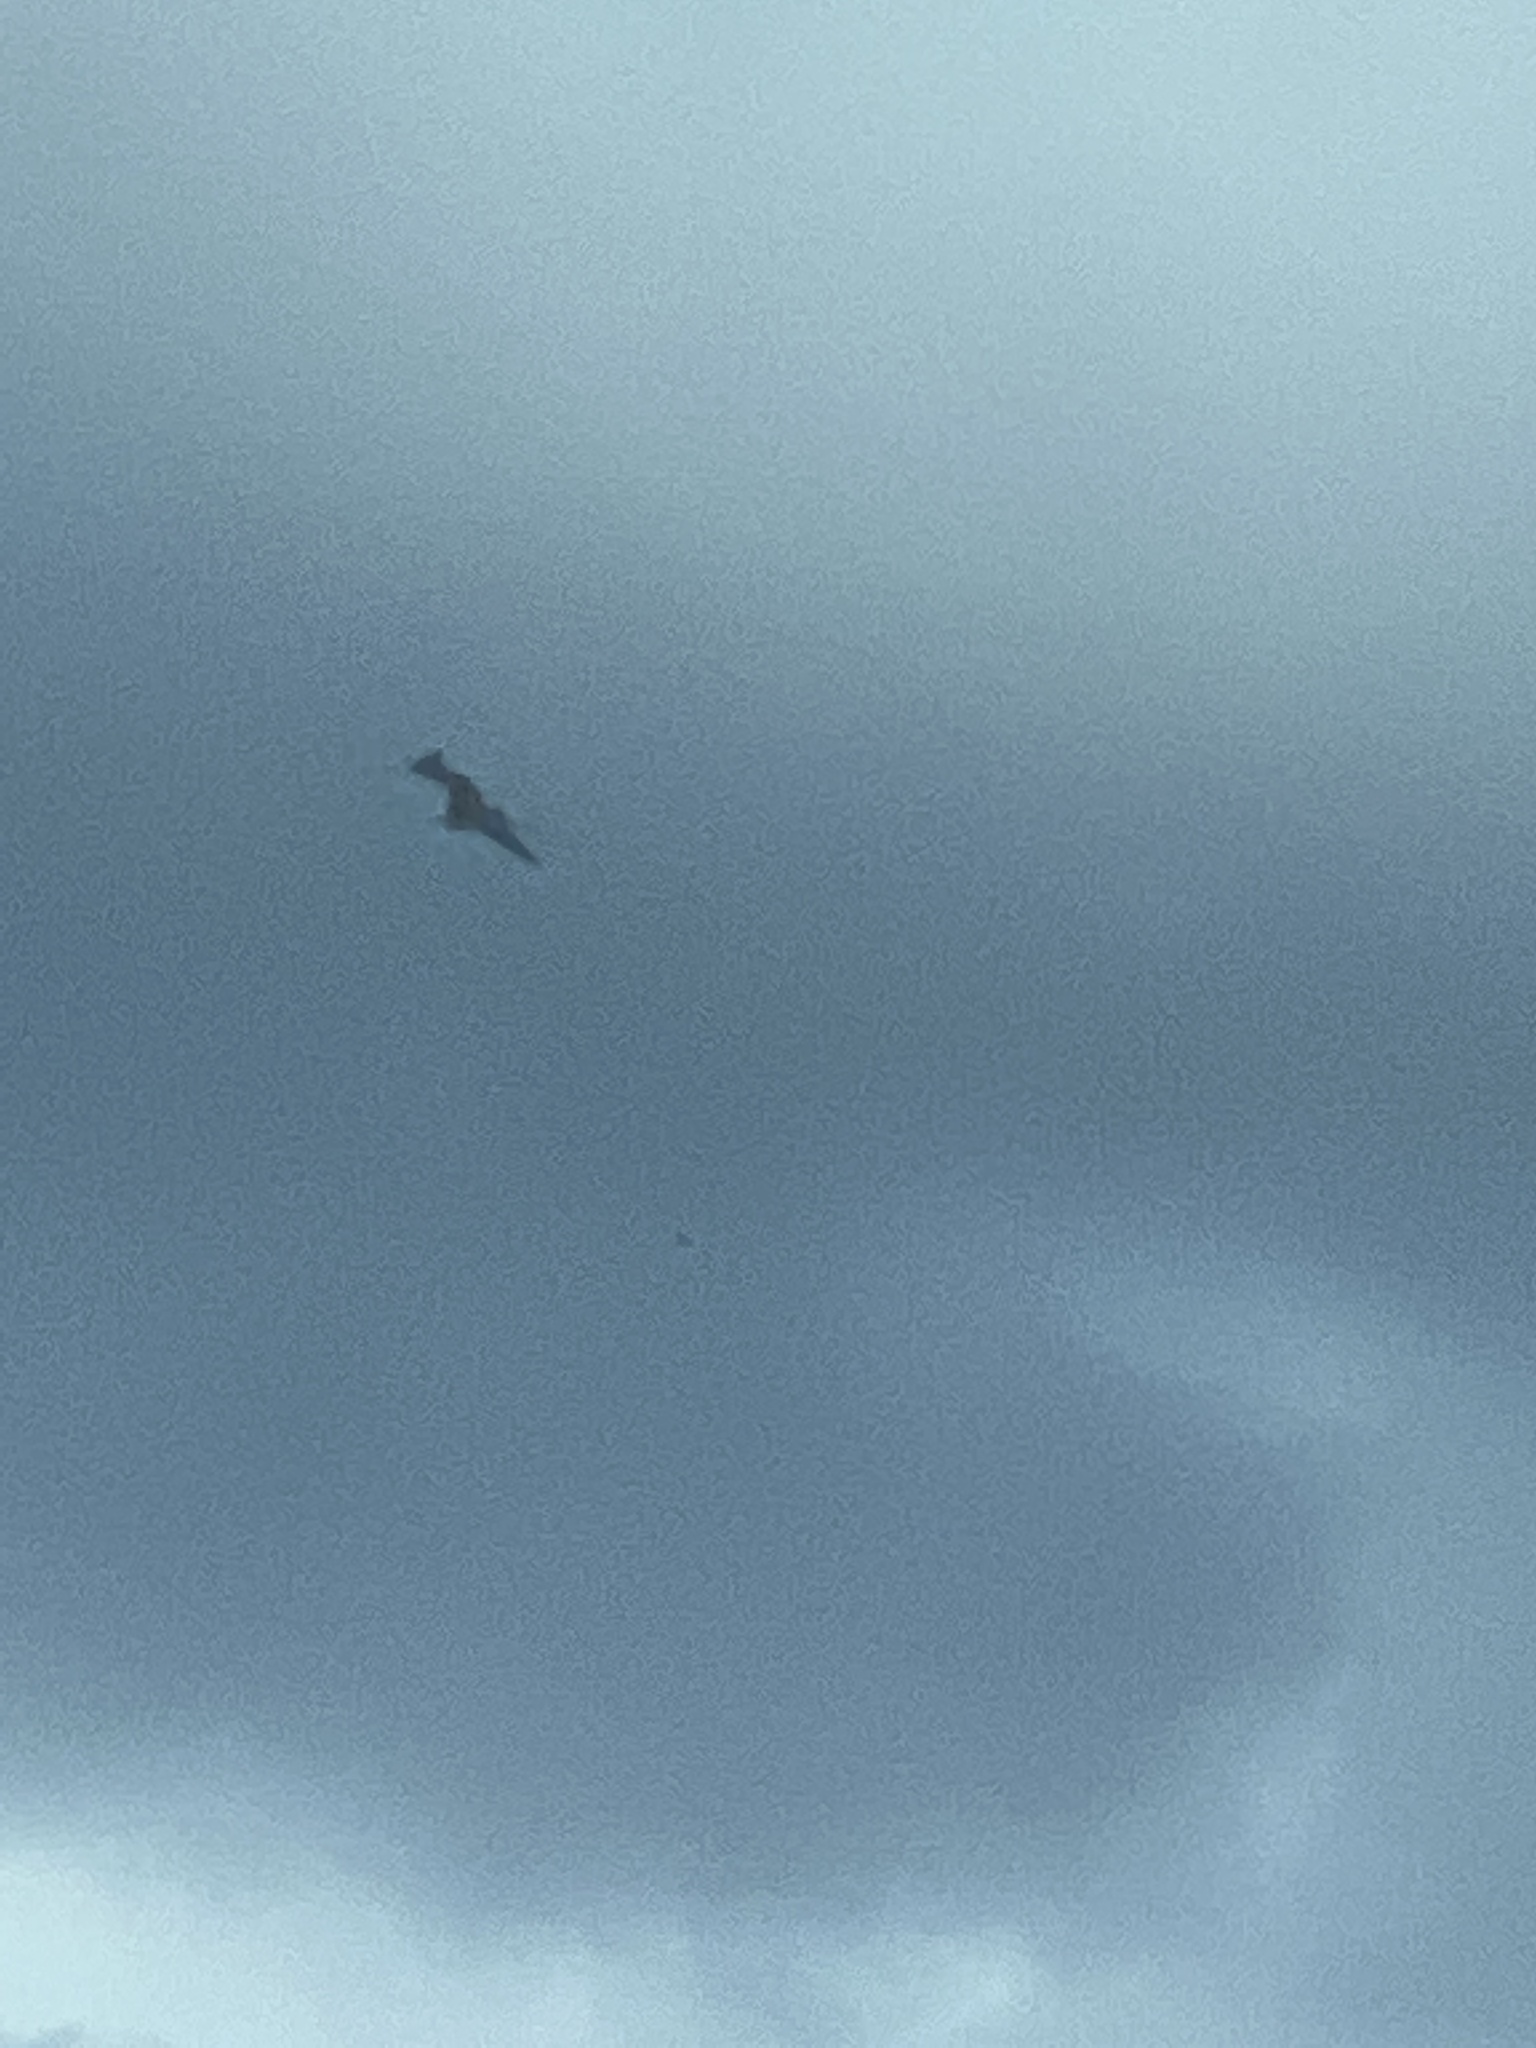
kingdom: Animalia
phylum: Chordata
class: Aves
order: Suliformes
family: Fregatidae
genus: Fregata
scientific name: Fregata magnificens
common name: Magnificent frigatebird
